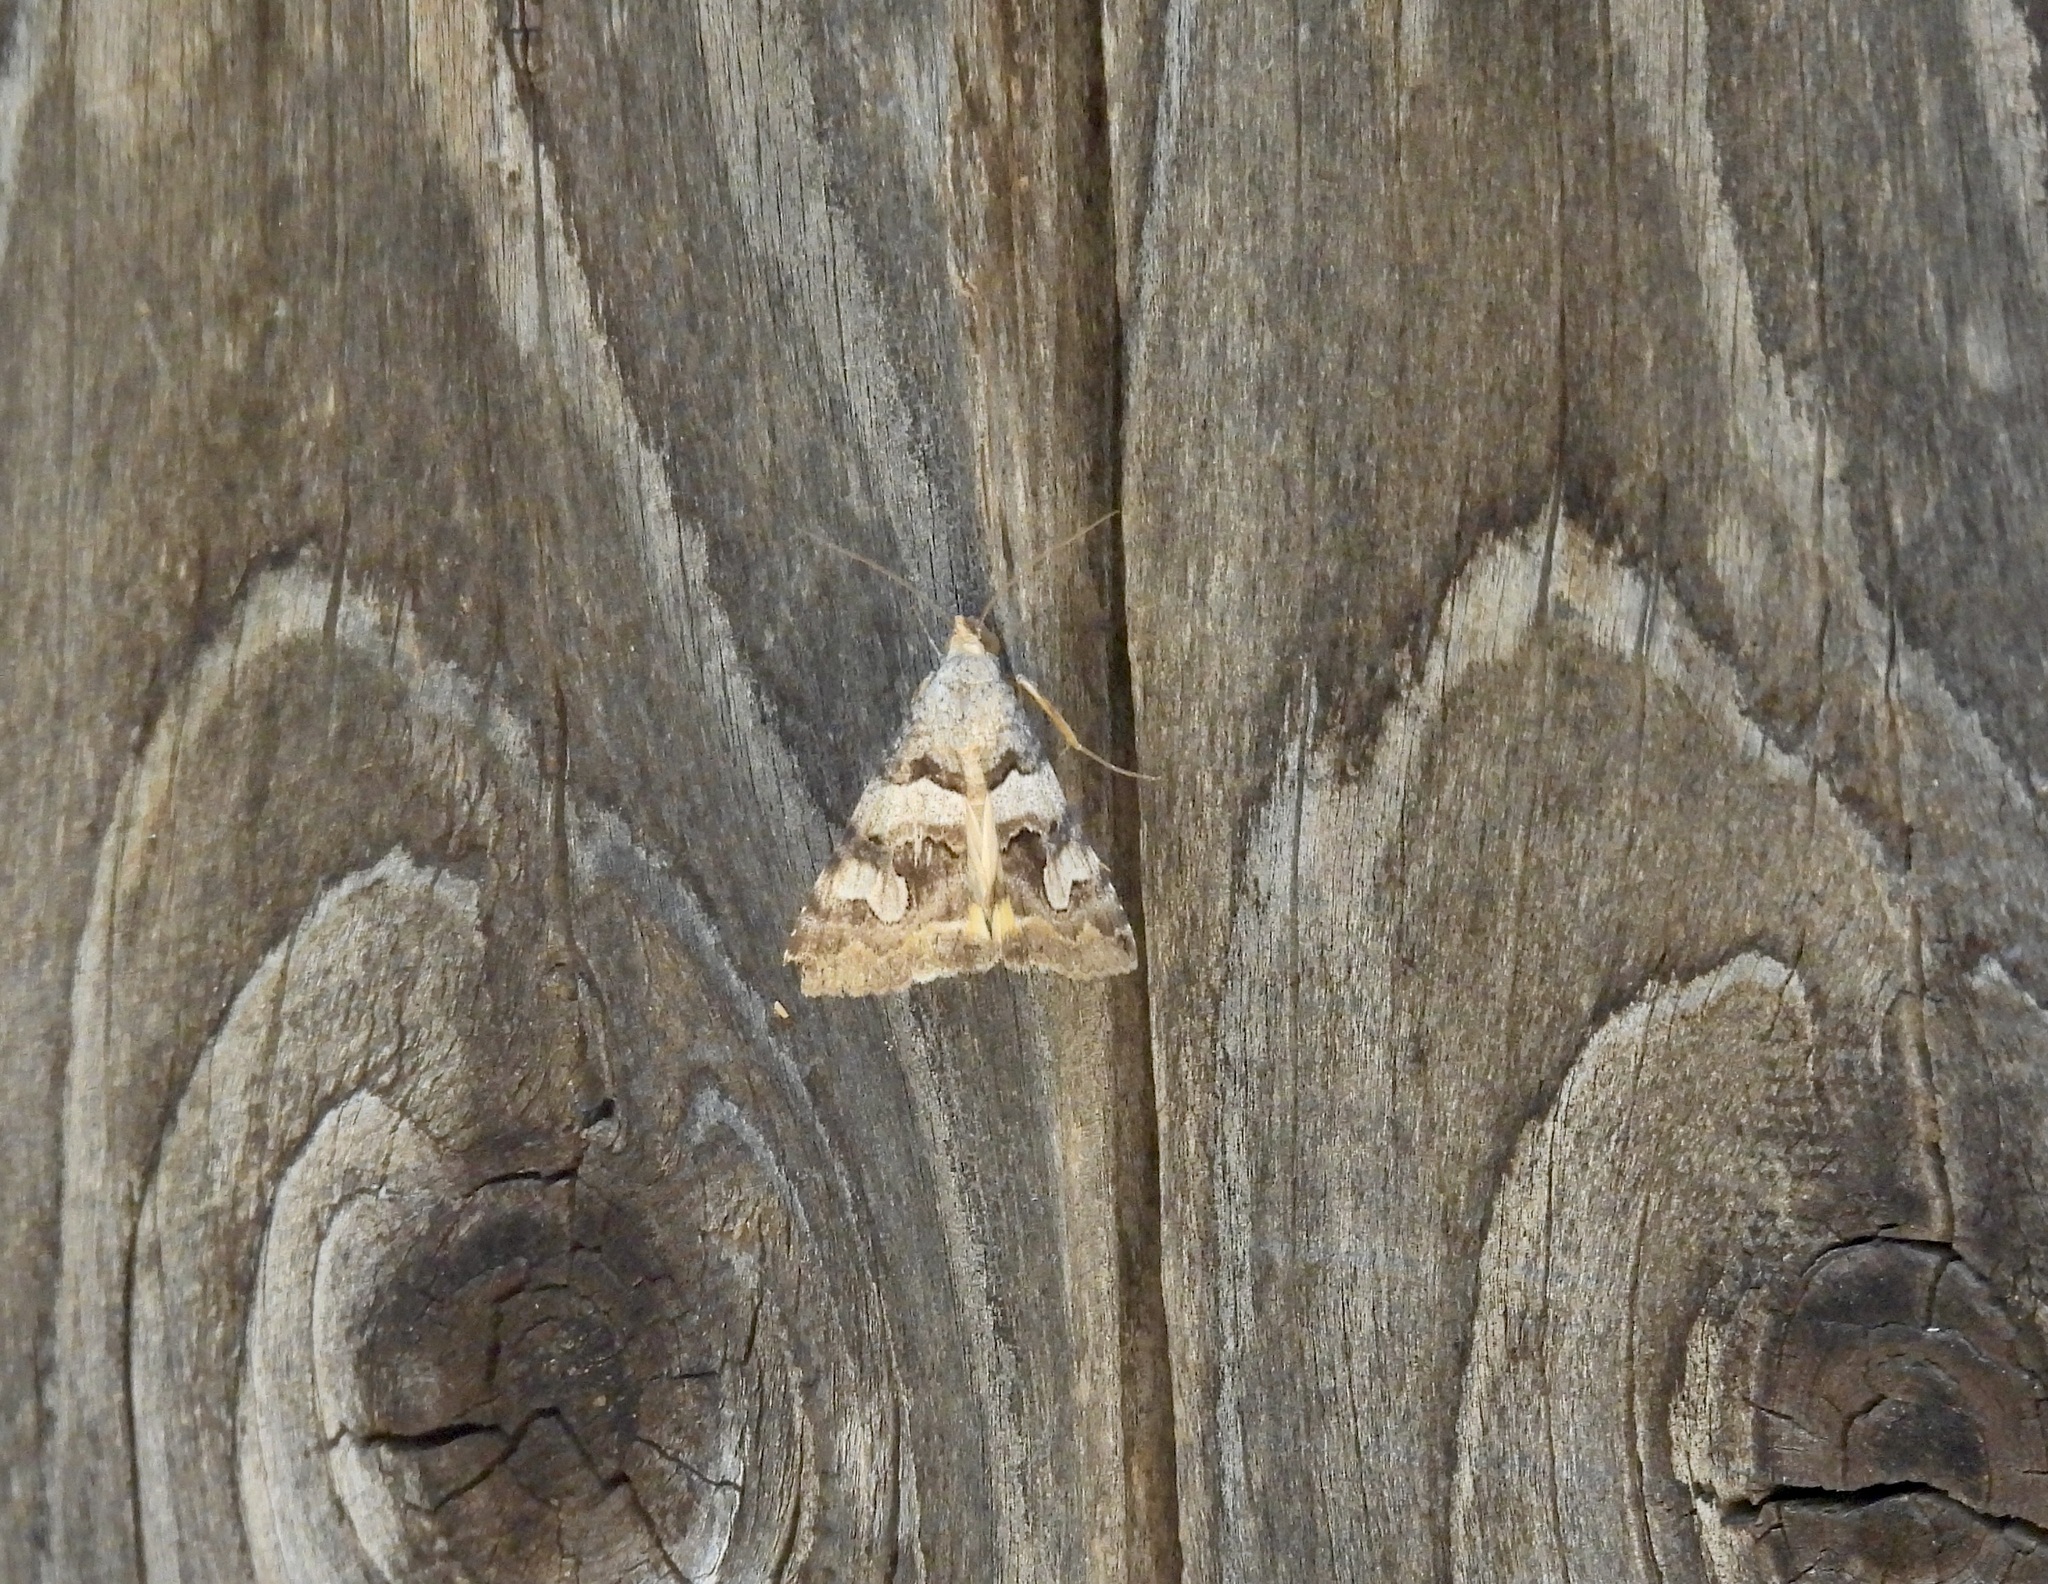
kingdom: Animalia
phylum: Arthropoda
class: Insecta
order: Lepidoptera
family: Erebidae
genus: Bulia
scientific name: Bulia deducta
